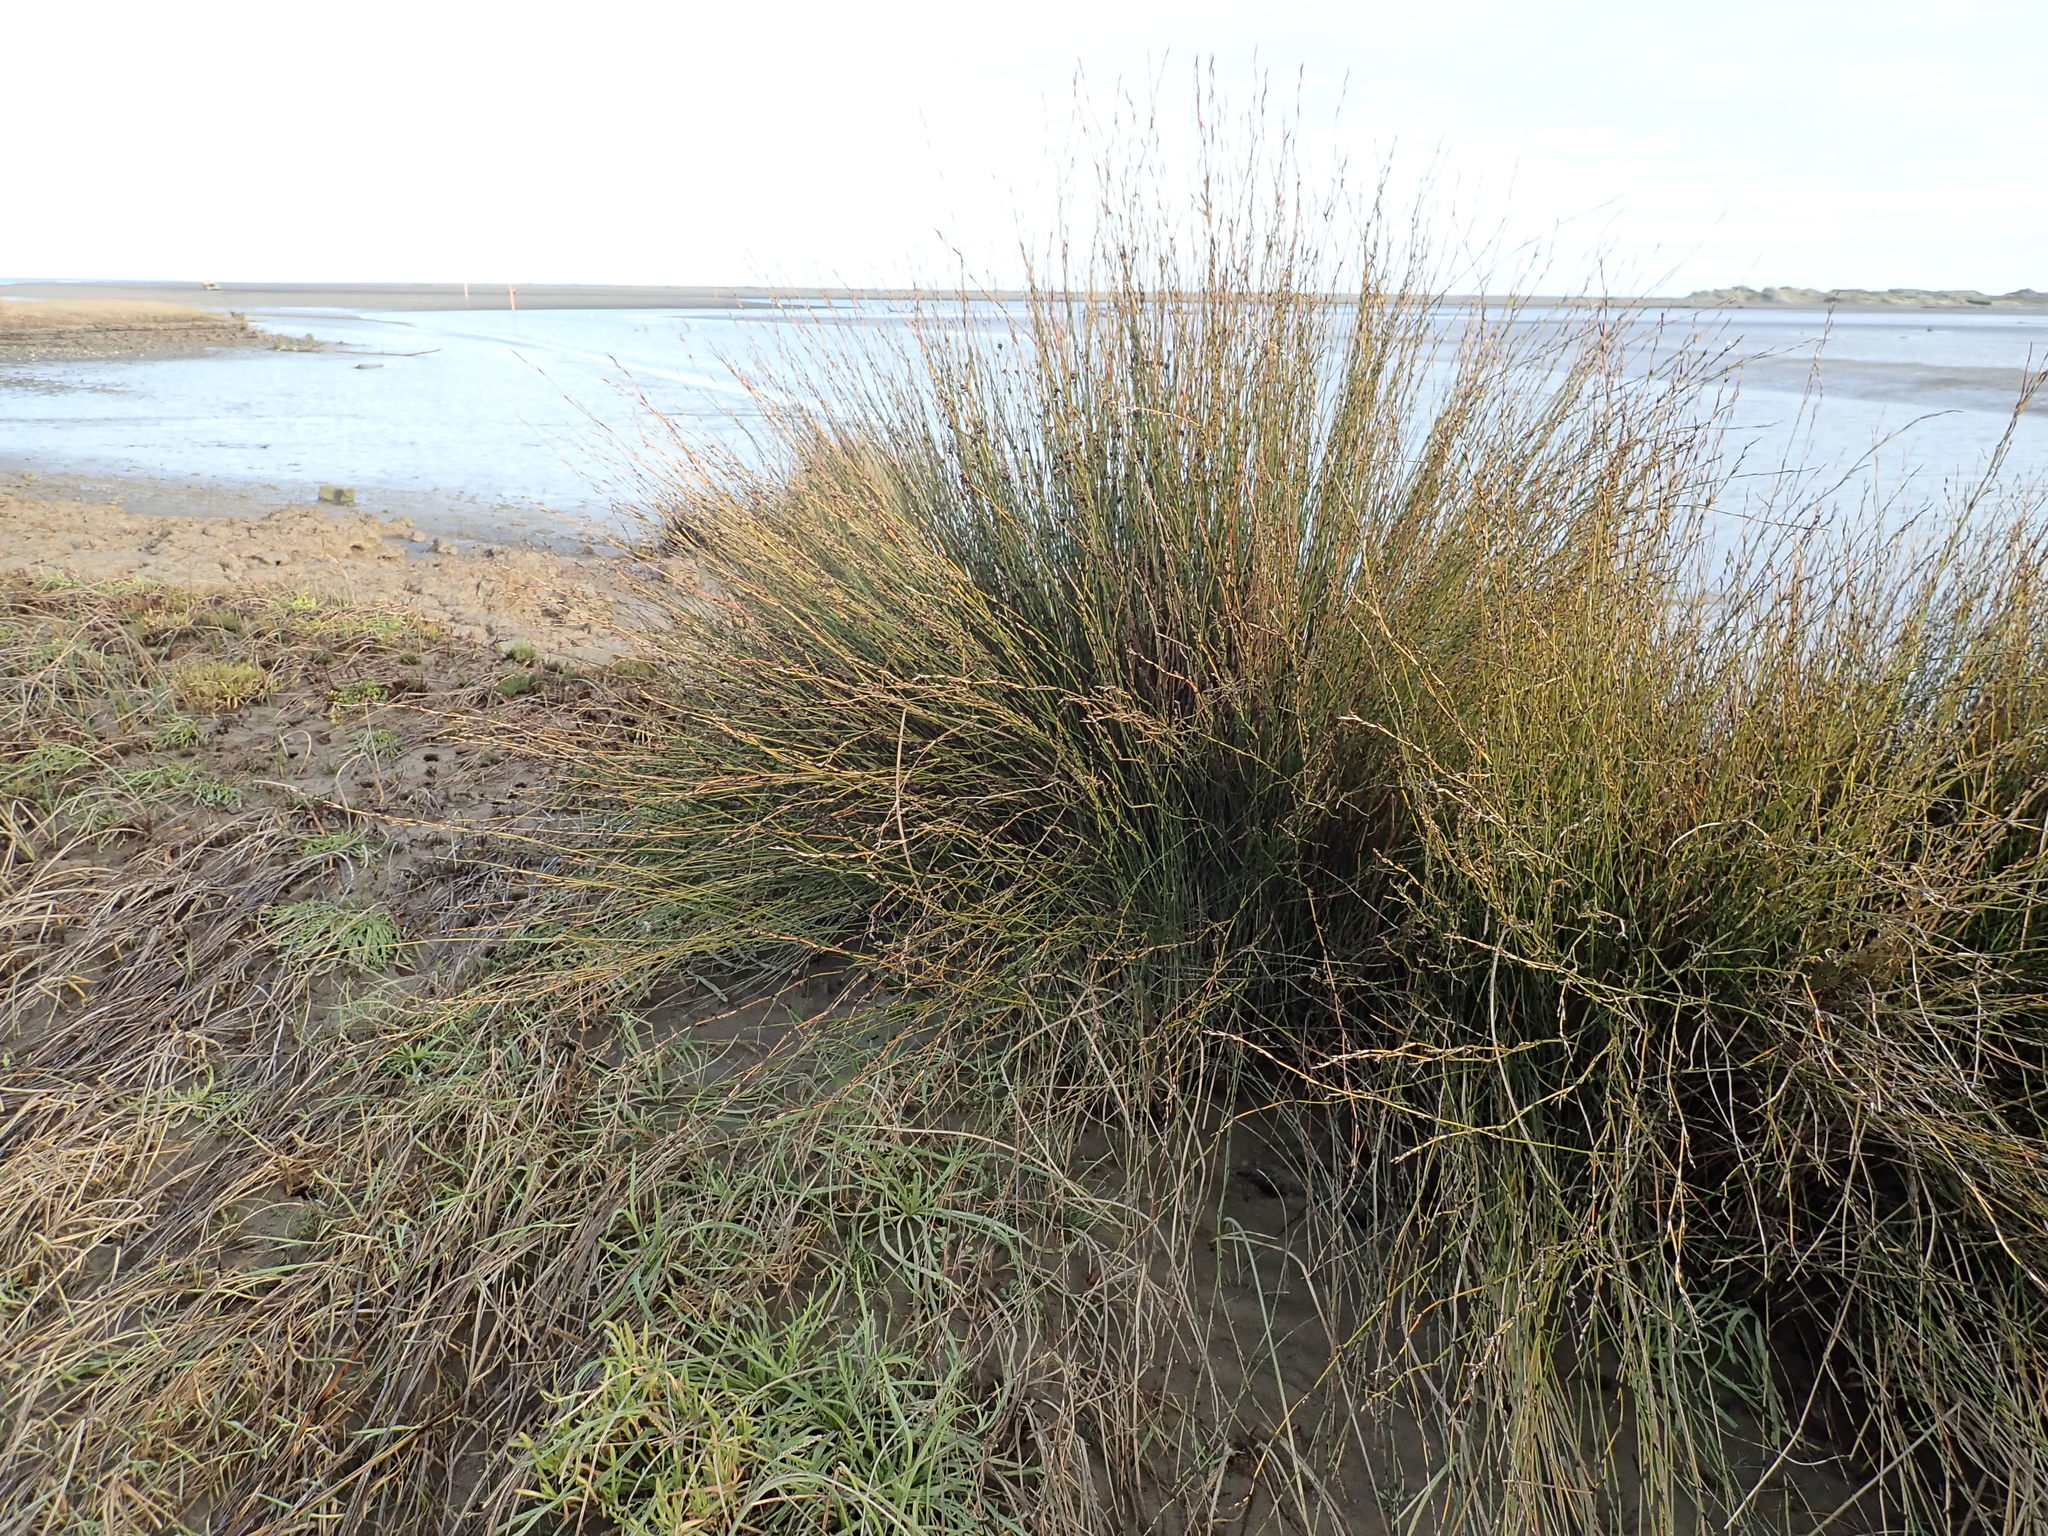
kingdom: Plantae
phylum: Tracheophyta
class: Liliopsida
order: Poales
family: Restionaceae
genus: Apodasmia
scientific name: Apodasmia similis
